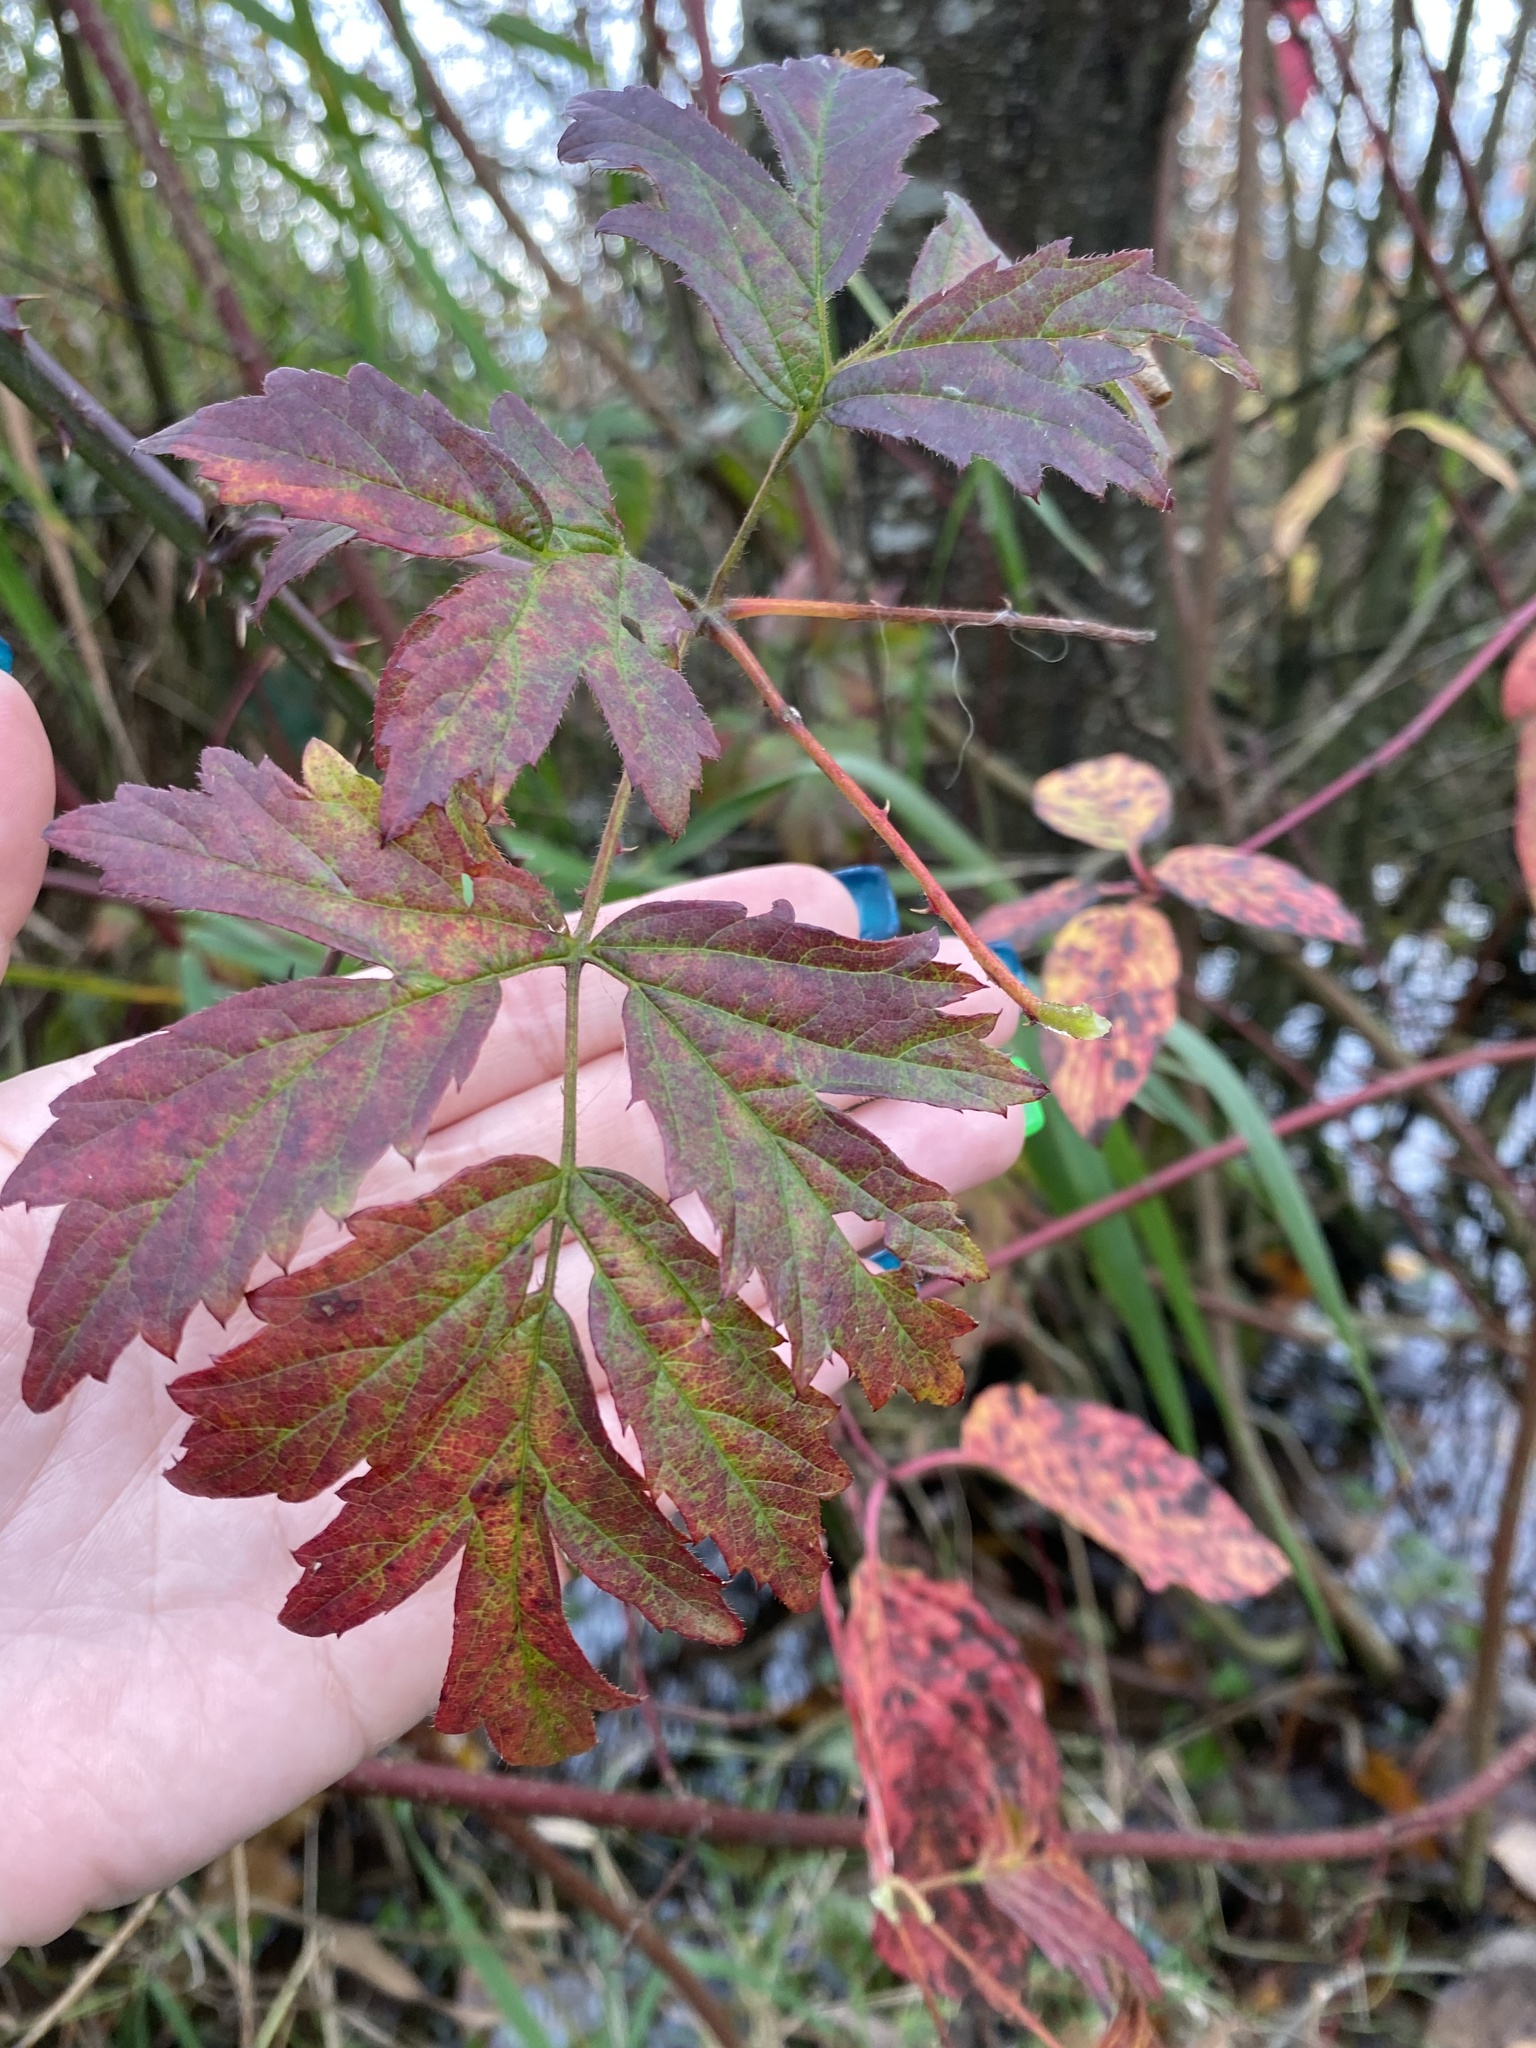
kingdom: Plantae
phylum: Tracheophyta
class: Magnoliopsida
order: Rosales
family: Rosaceae
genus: Rubus
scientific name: Rubus laciniatus
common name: Evergreen blackberry
